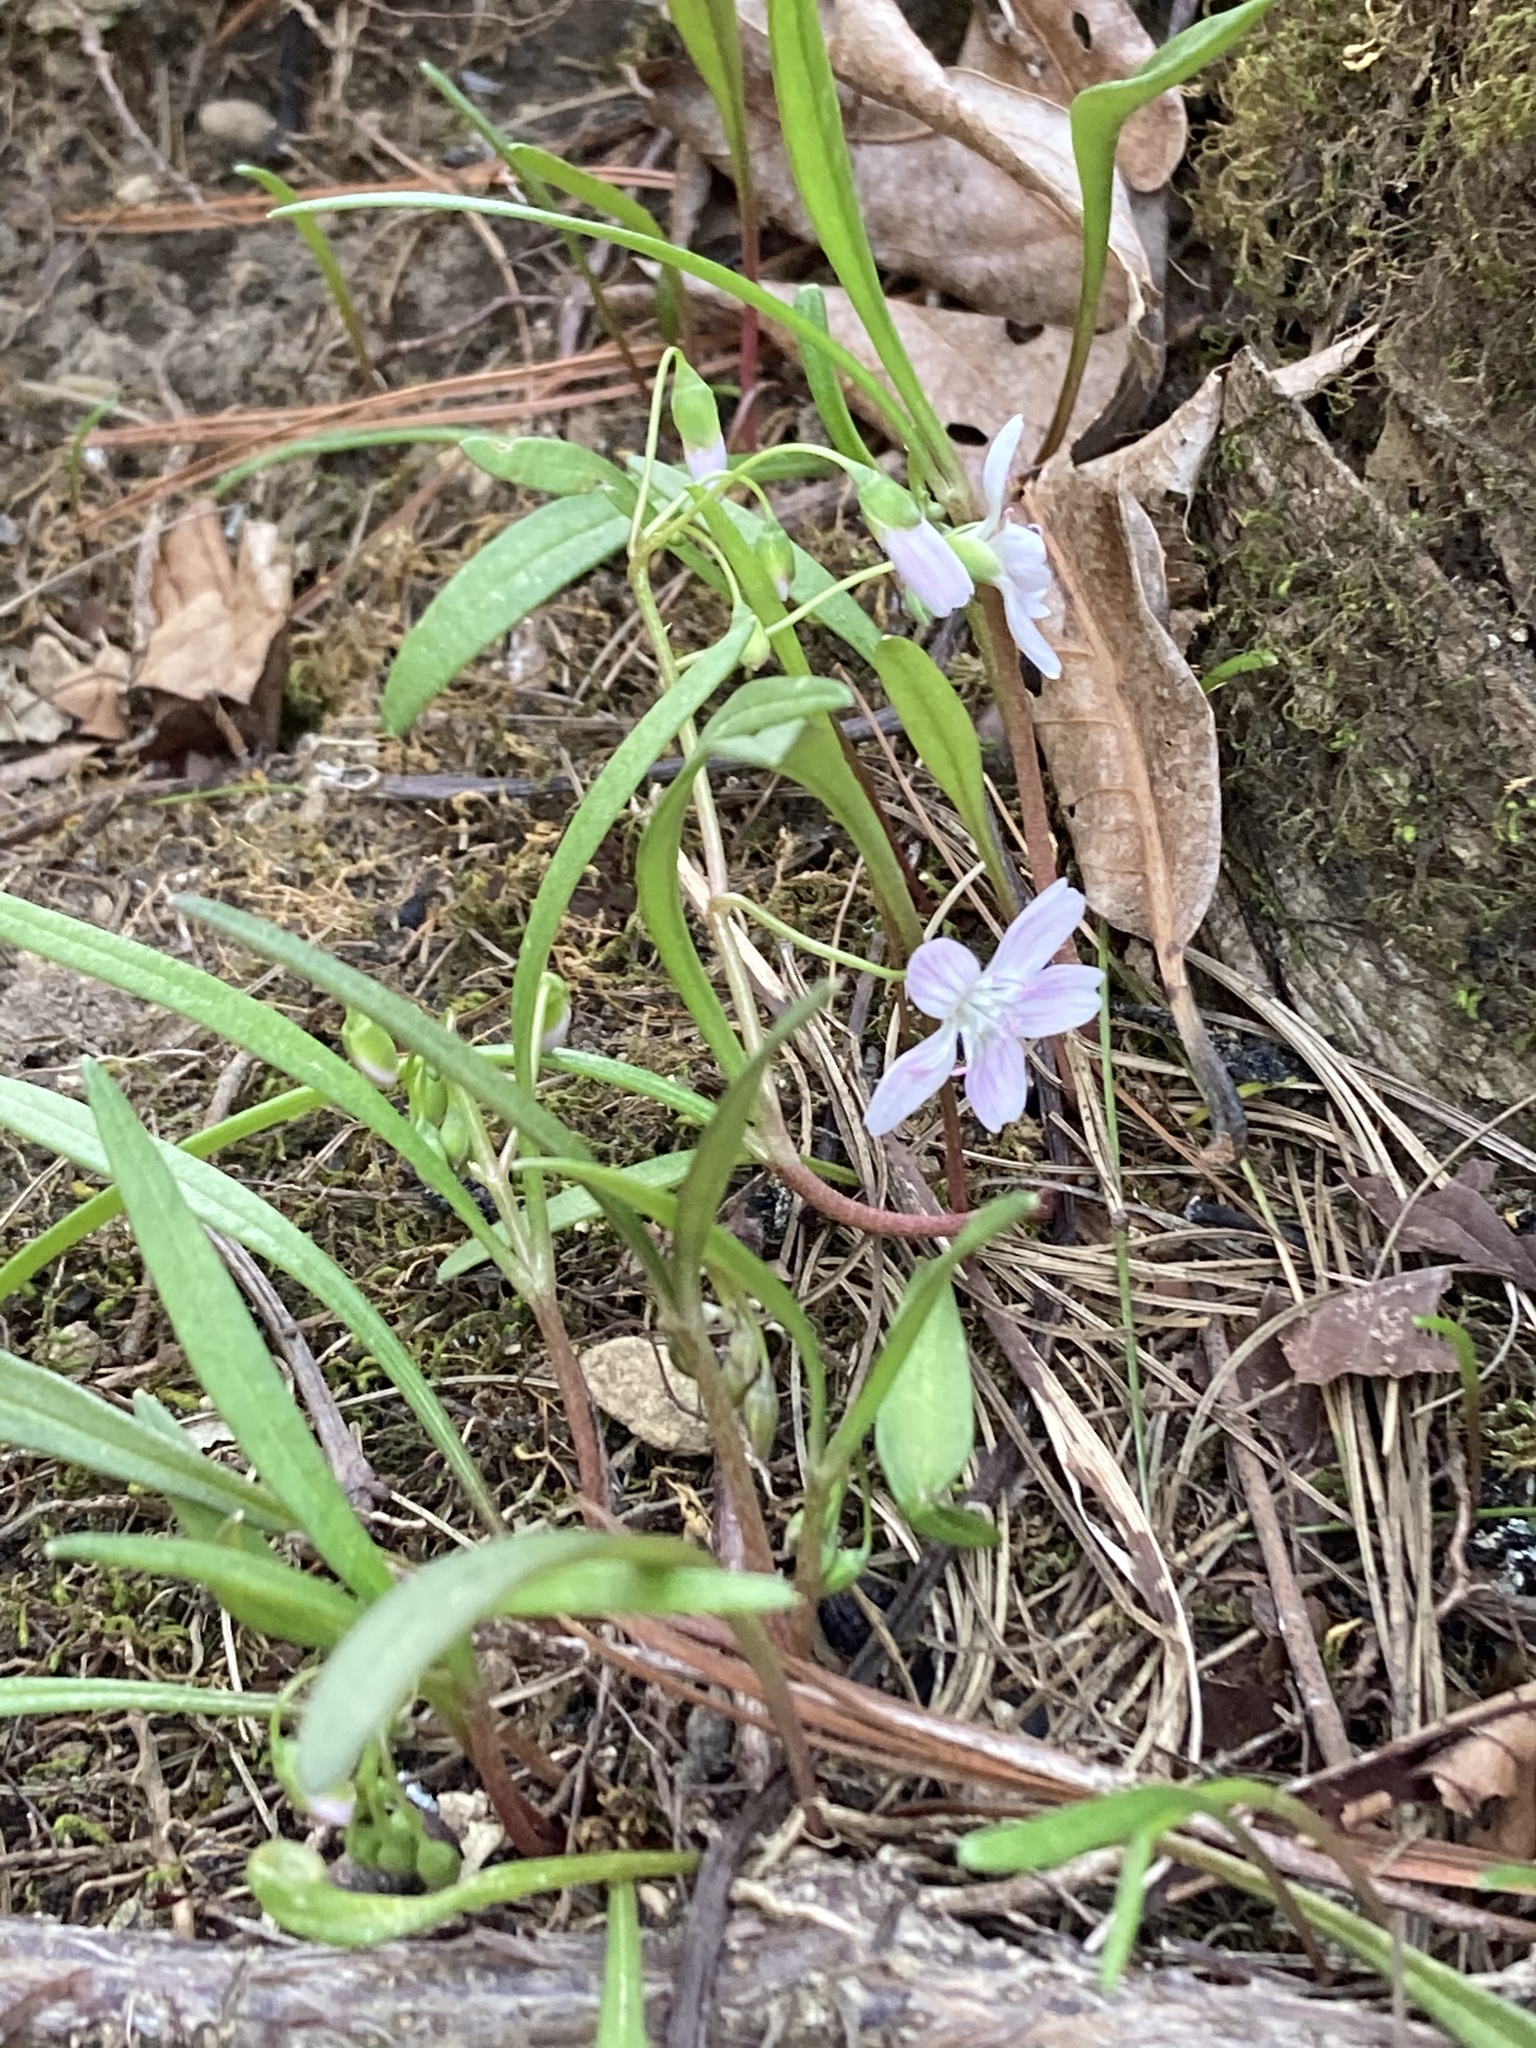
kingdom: Plantae
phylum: Tracheophyta
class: Magnoliopsida
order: Caryophyllales
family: Montiaceae
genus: Claytonia
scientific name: Claytonia virginica
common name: Virginia springbeauty
